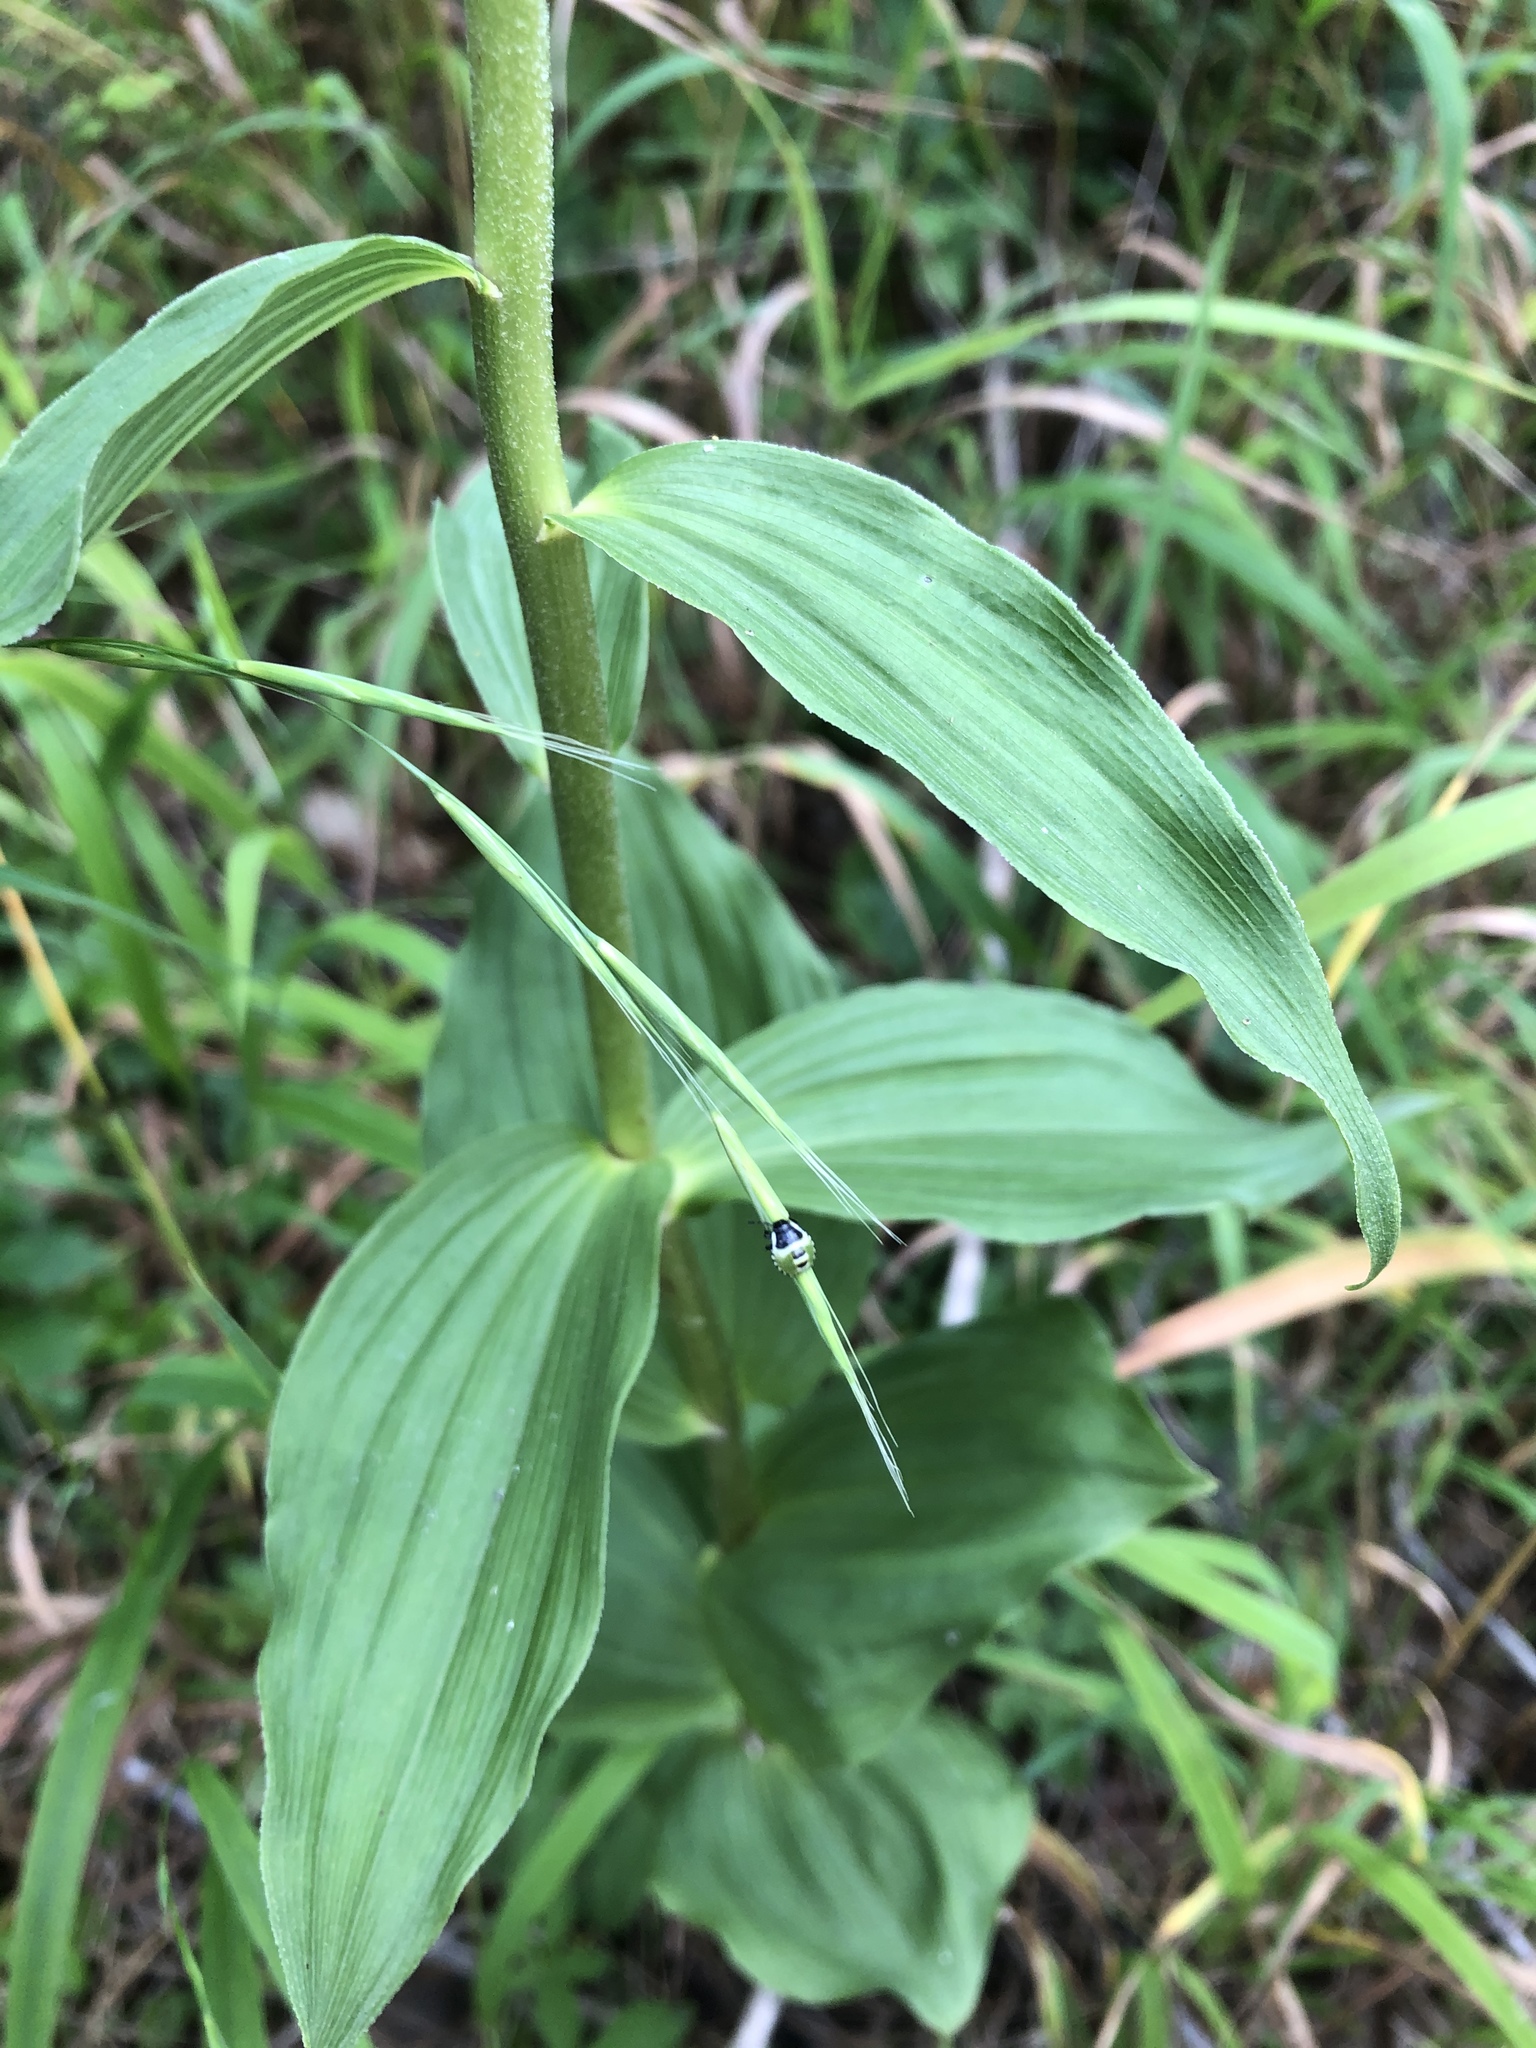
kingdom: Plantae
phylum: Tracheophyta
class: Liliopsida
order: Asparagales
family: Orchidaceae
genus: Epipactis
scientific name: Epipactis helleborine
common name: Broad-leaved helleborine
